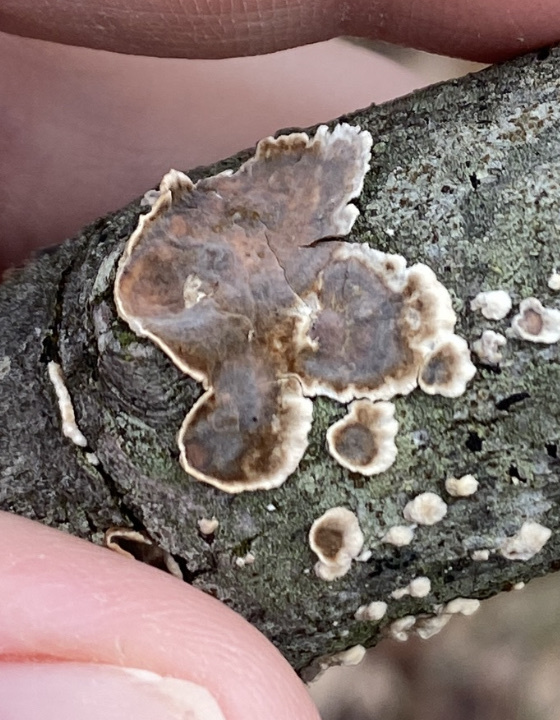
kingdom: Fungi
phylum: Basidiomycota
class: Agaricomycetes
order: Russulales
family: Peniophoraceae
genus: Peniophora
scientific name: Peniophora albobadia
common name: Giraffe spots
